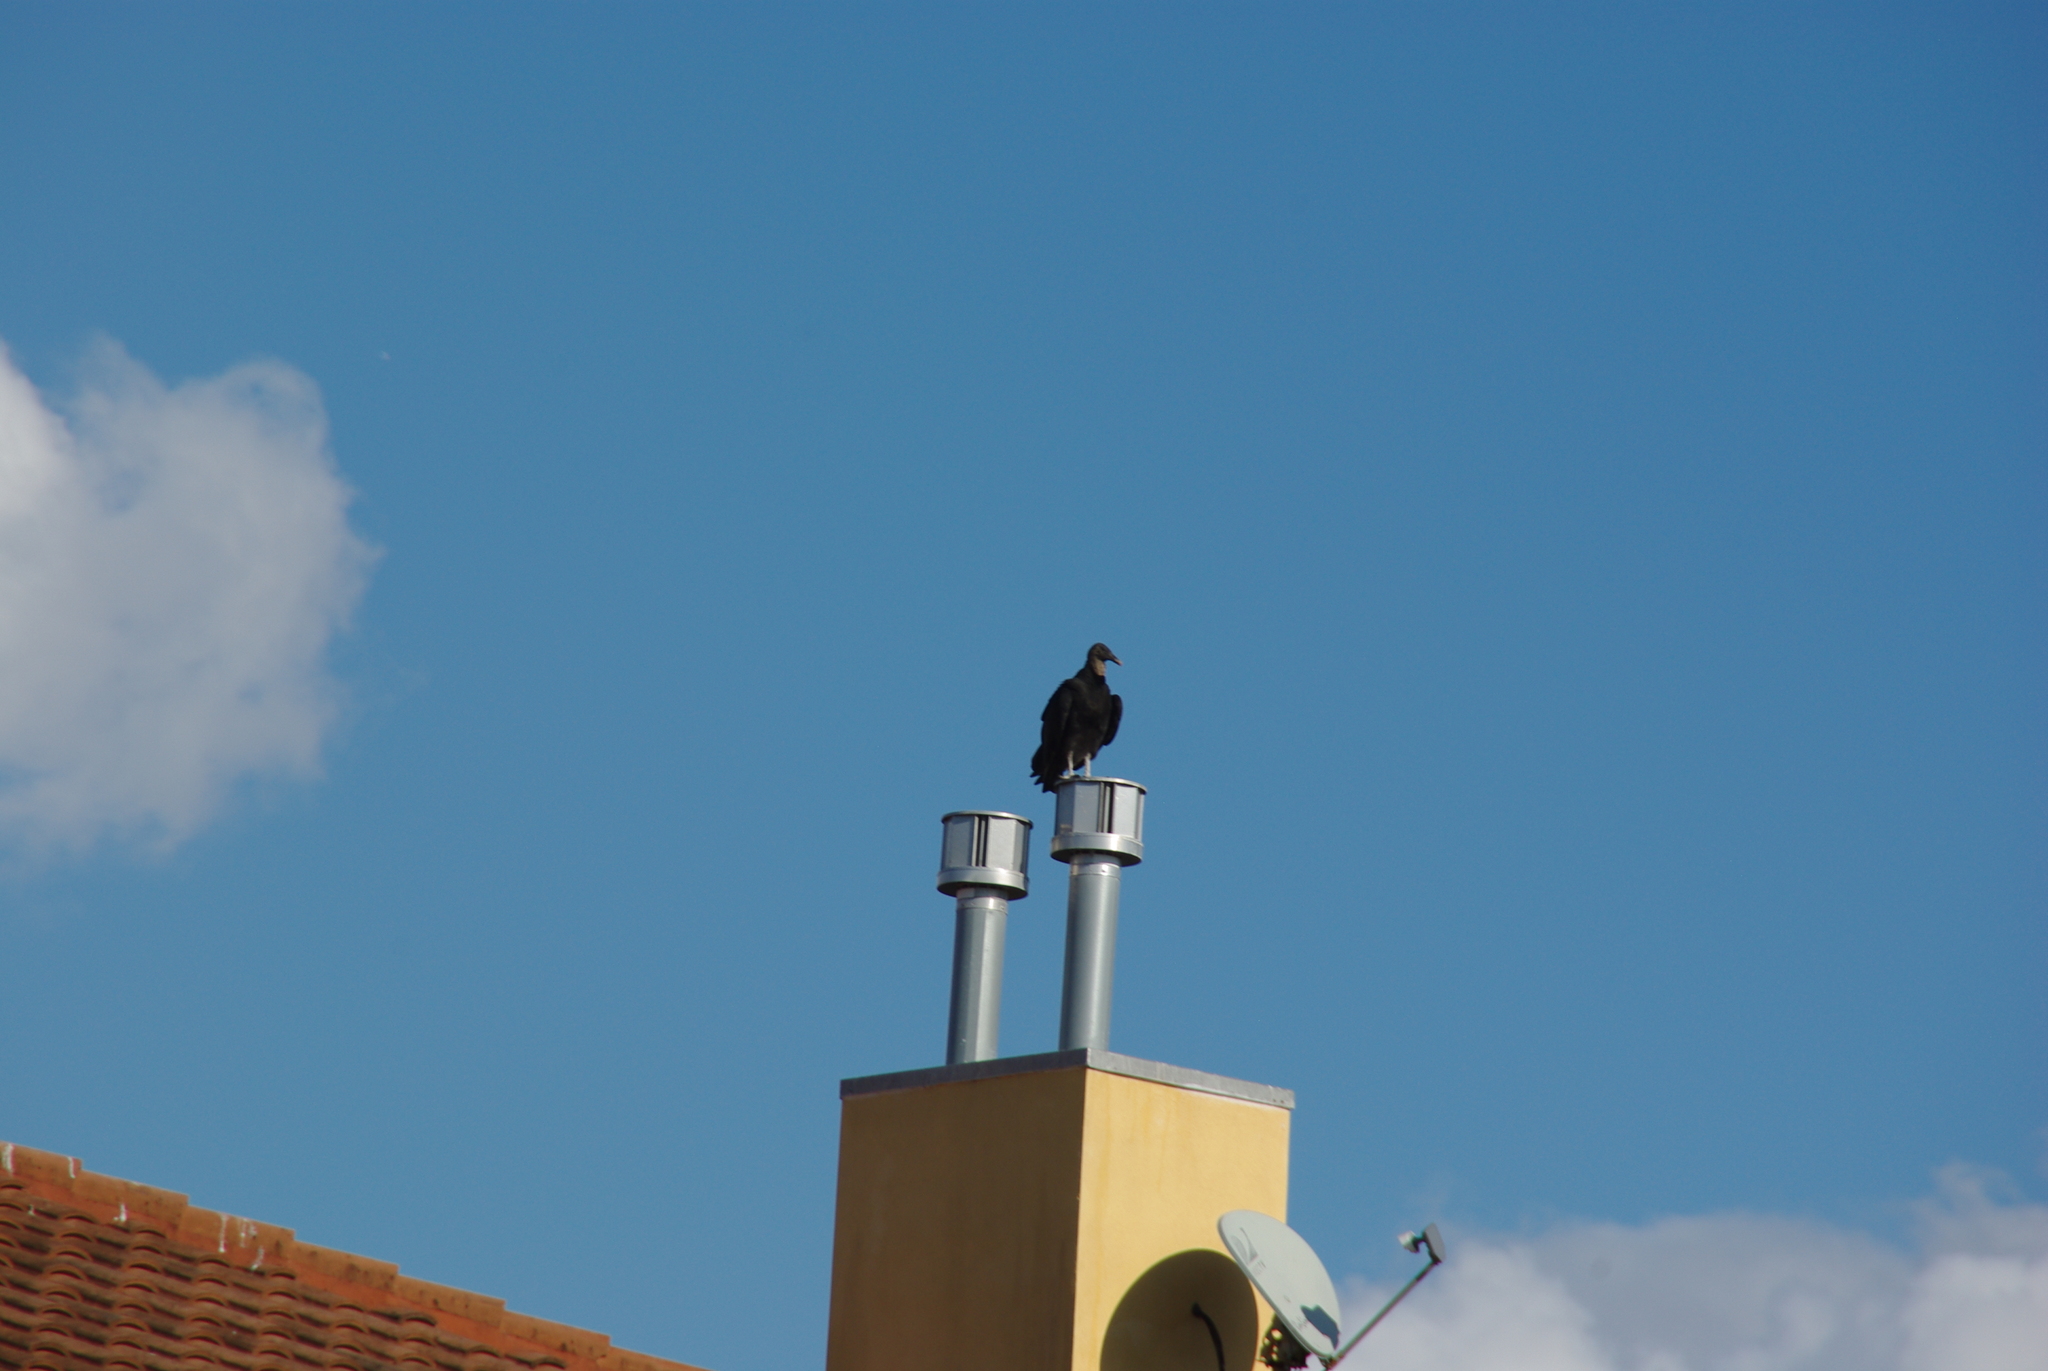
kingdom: Animalia
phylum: Chordata
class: Aves
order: Accipitriformes
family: Cathartidae
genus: Coragyps
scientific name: Coragyps atratus
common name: Black vulture
